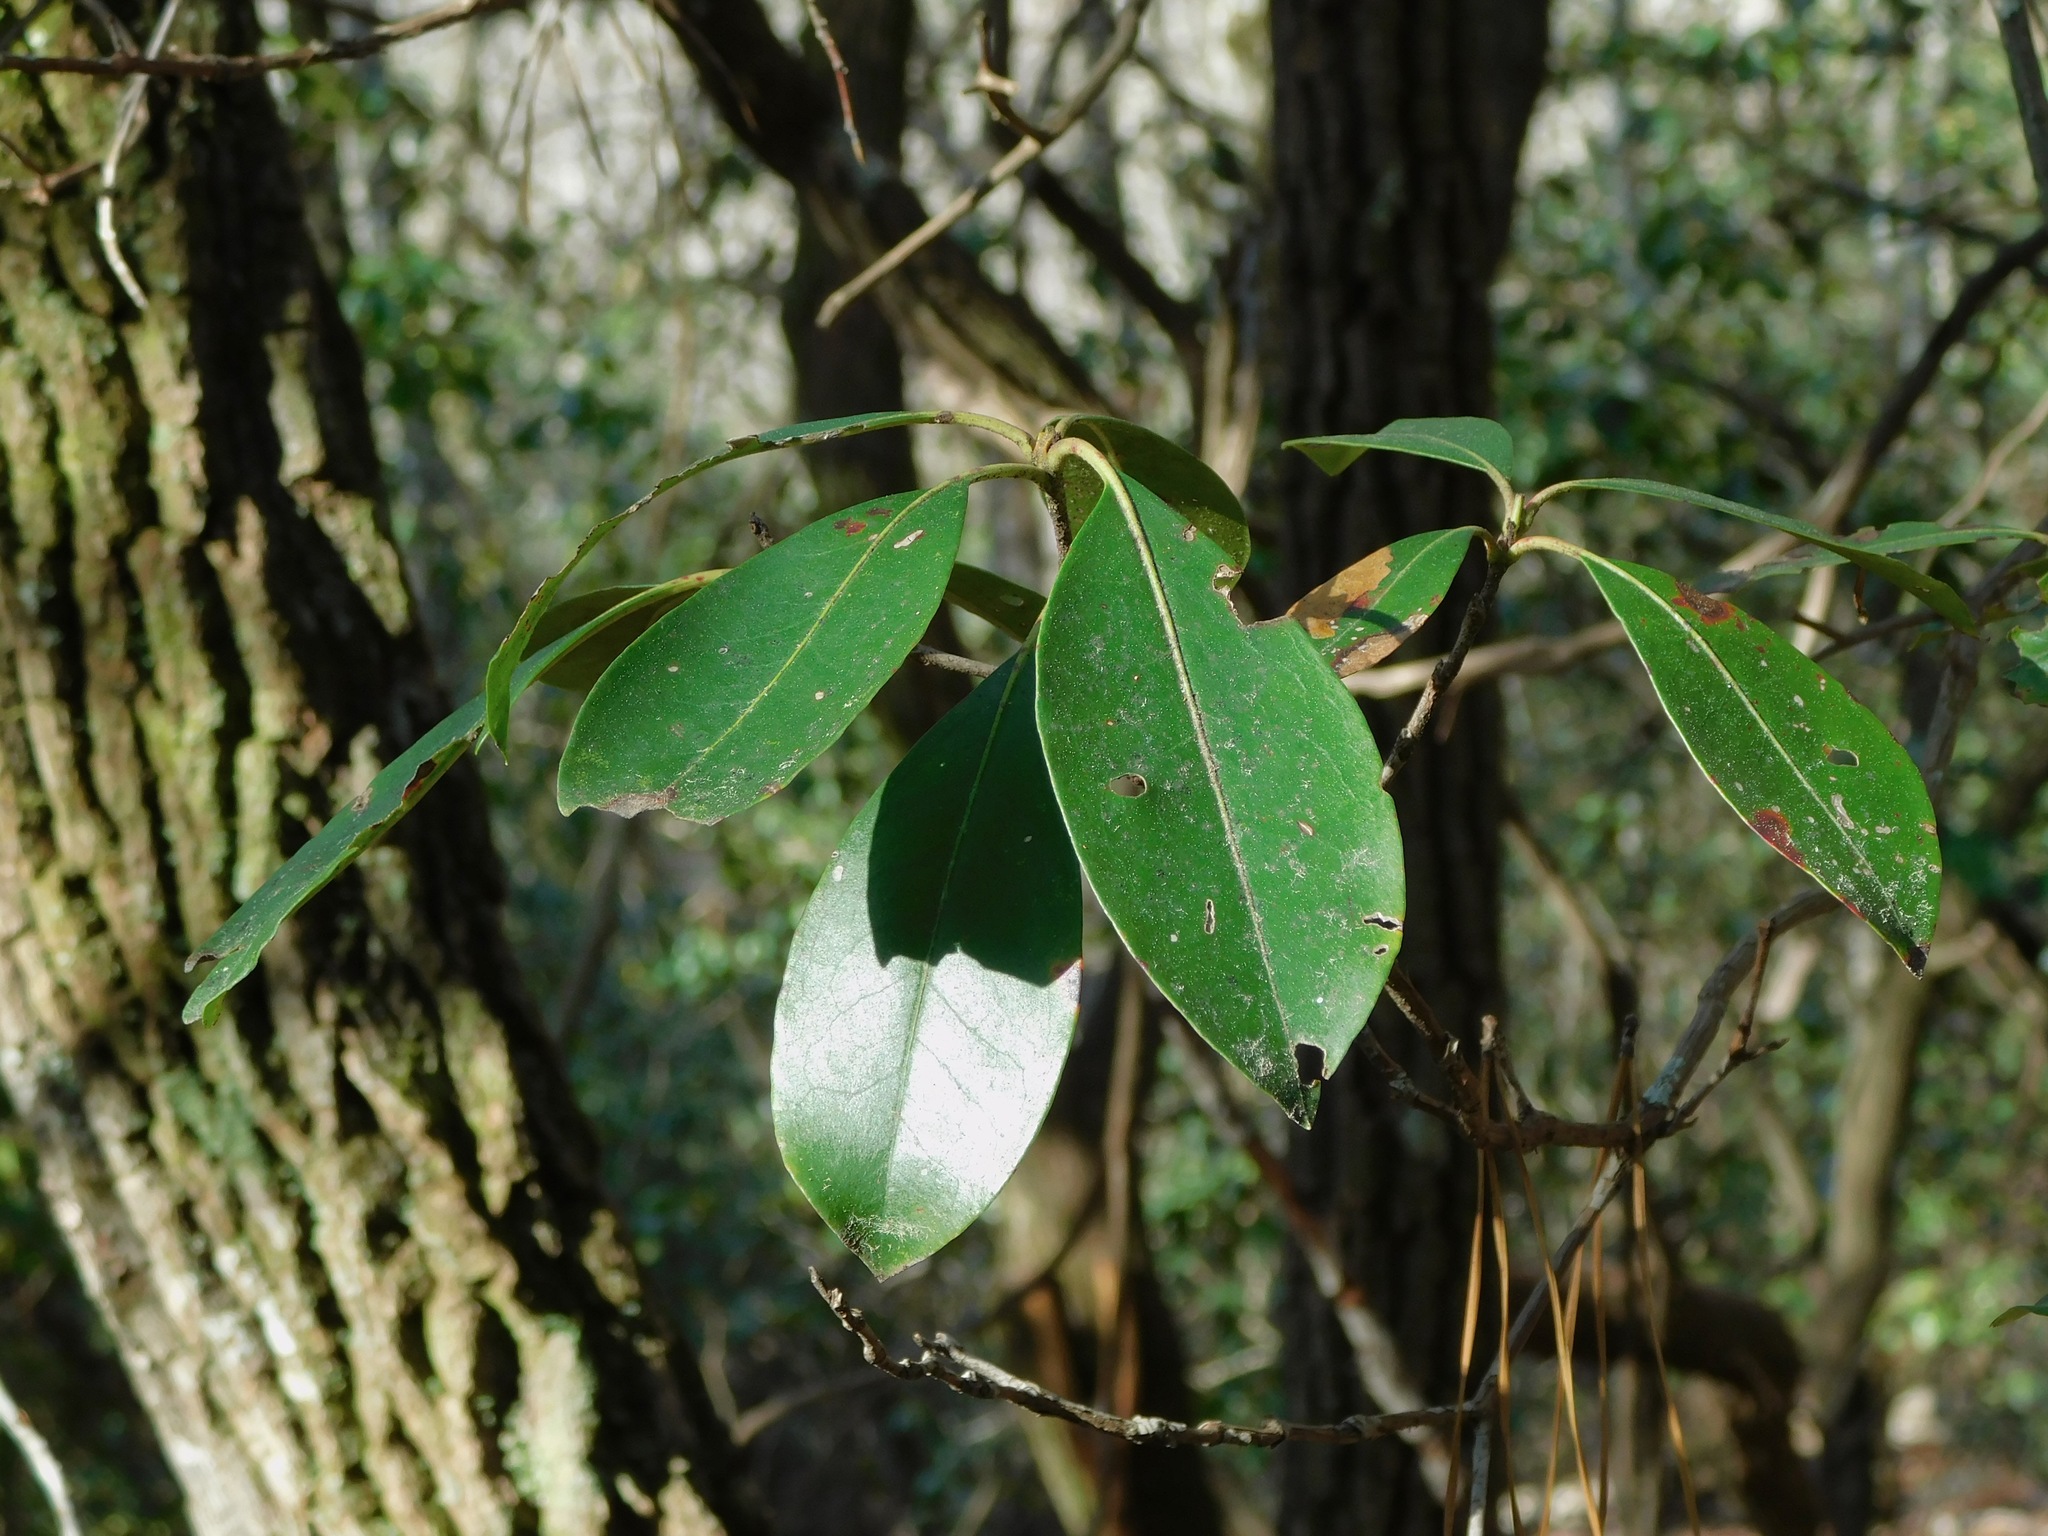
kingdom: Plantae
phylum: Tracheophyta
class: Magnoliopsida
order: Ericales
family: Ericaceae
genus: Kalmia
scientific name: Kalmia latifolia
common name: Mountain-laurel
